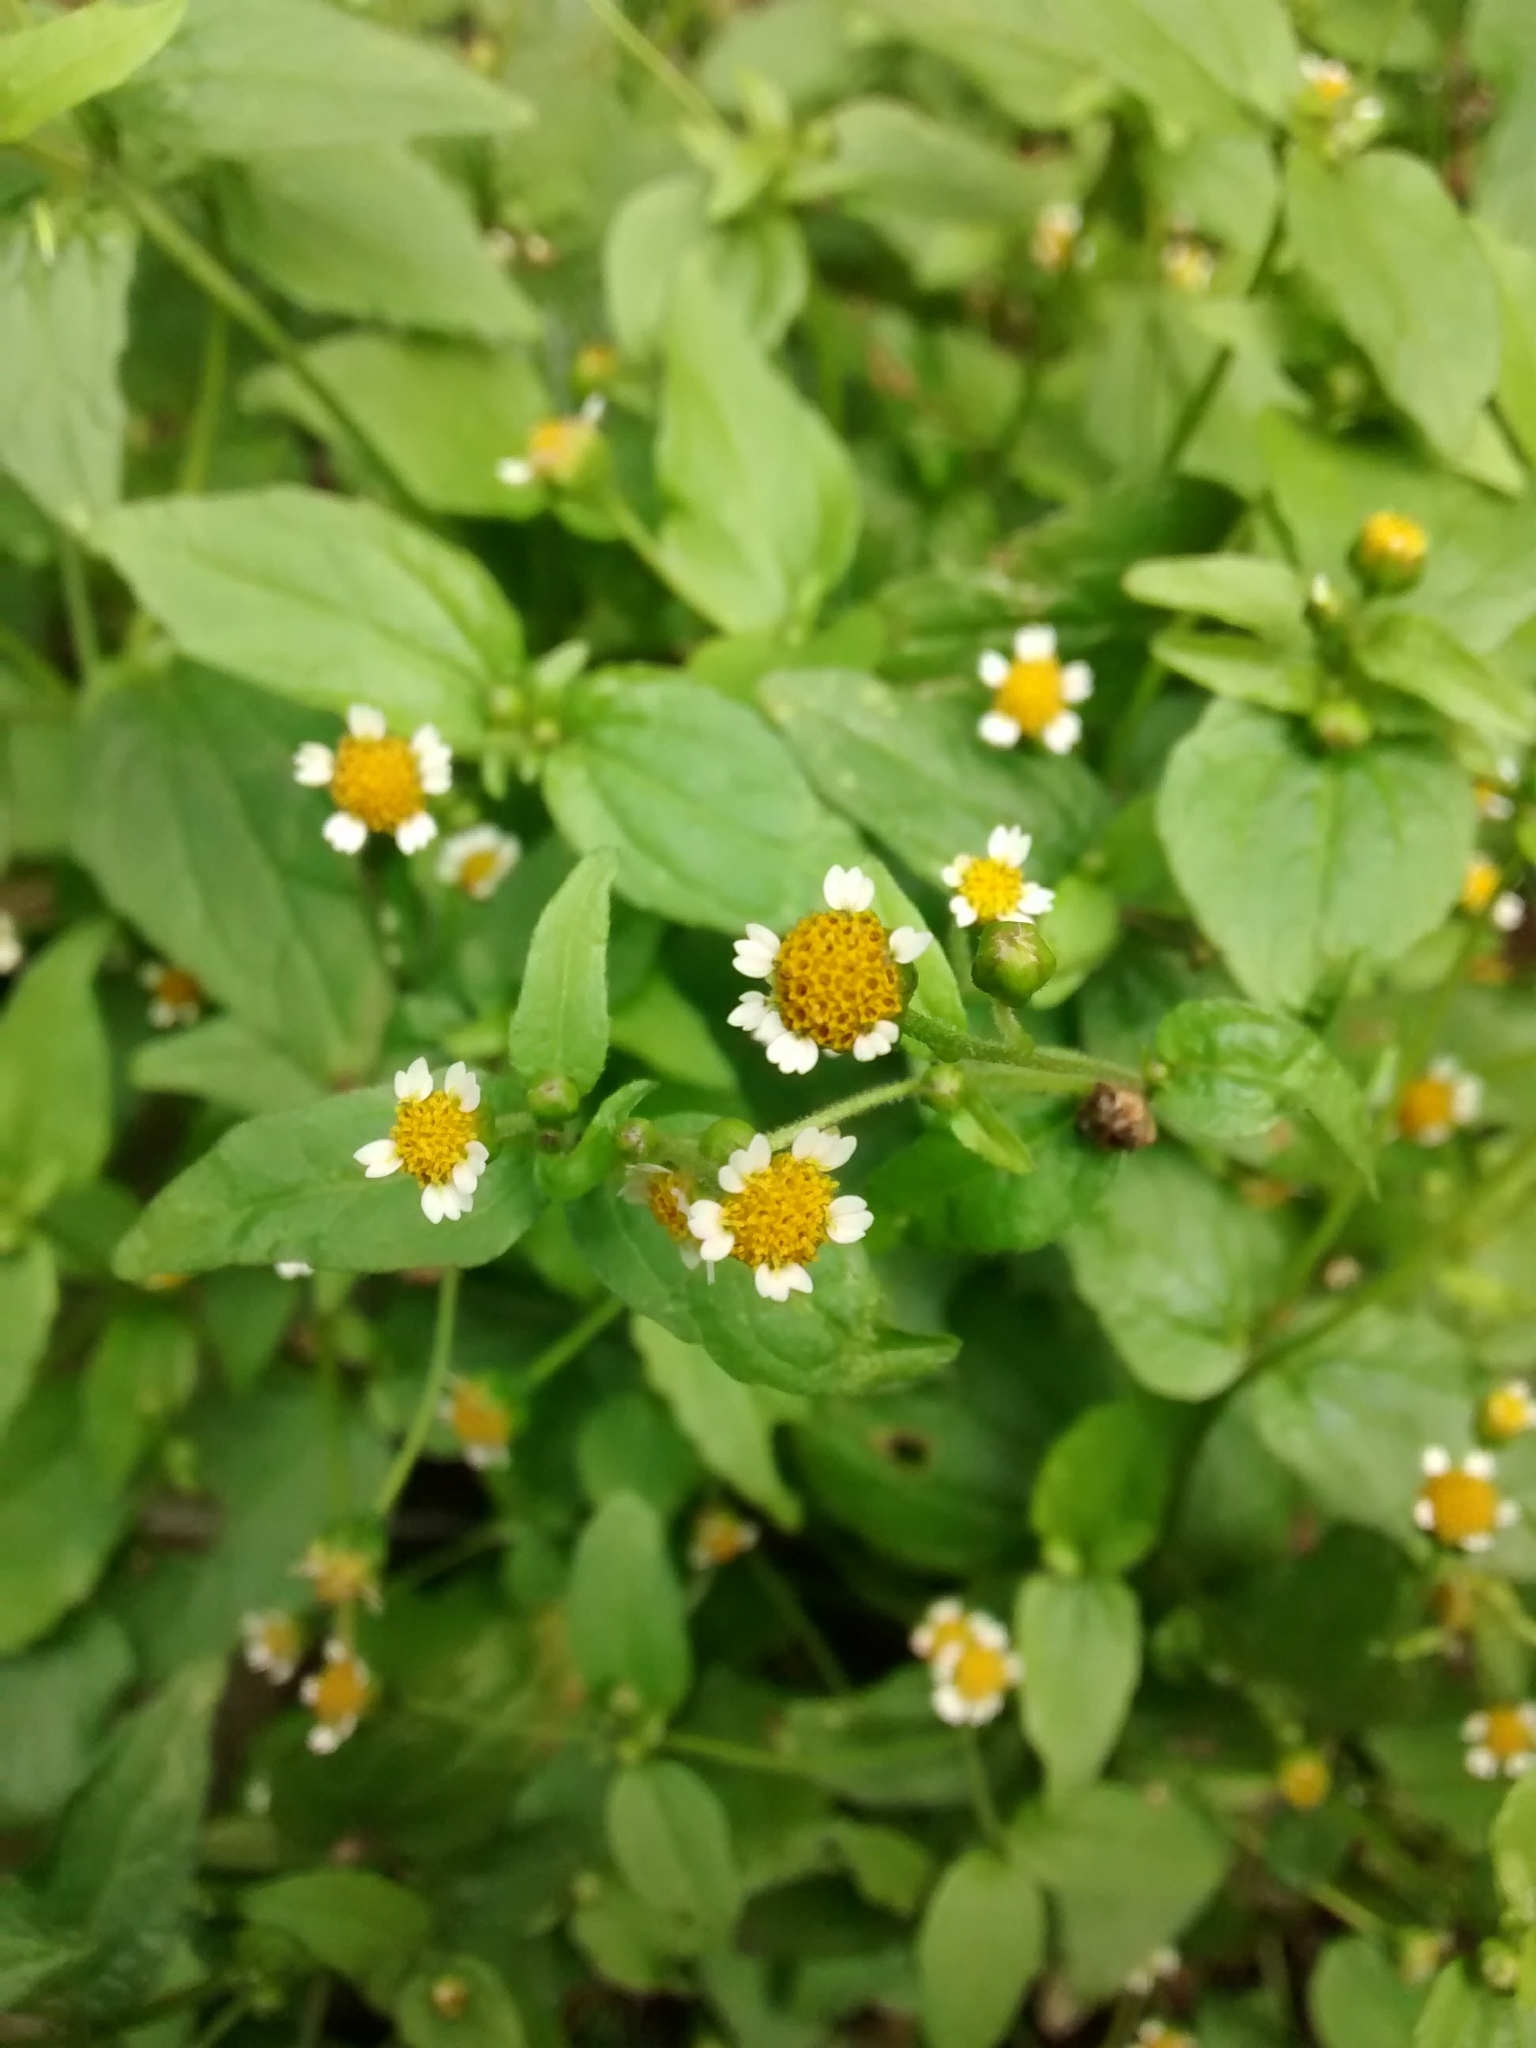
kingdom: Plantae
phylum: Tracheophyta
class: Magnoliopsida
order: Asterales
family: Asteraceae
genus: Galinsoga
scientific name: Galinsoga parviflora
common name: Gallant soldier
